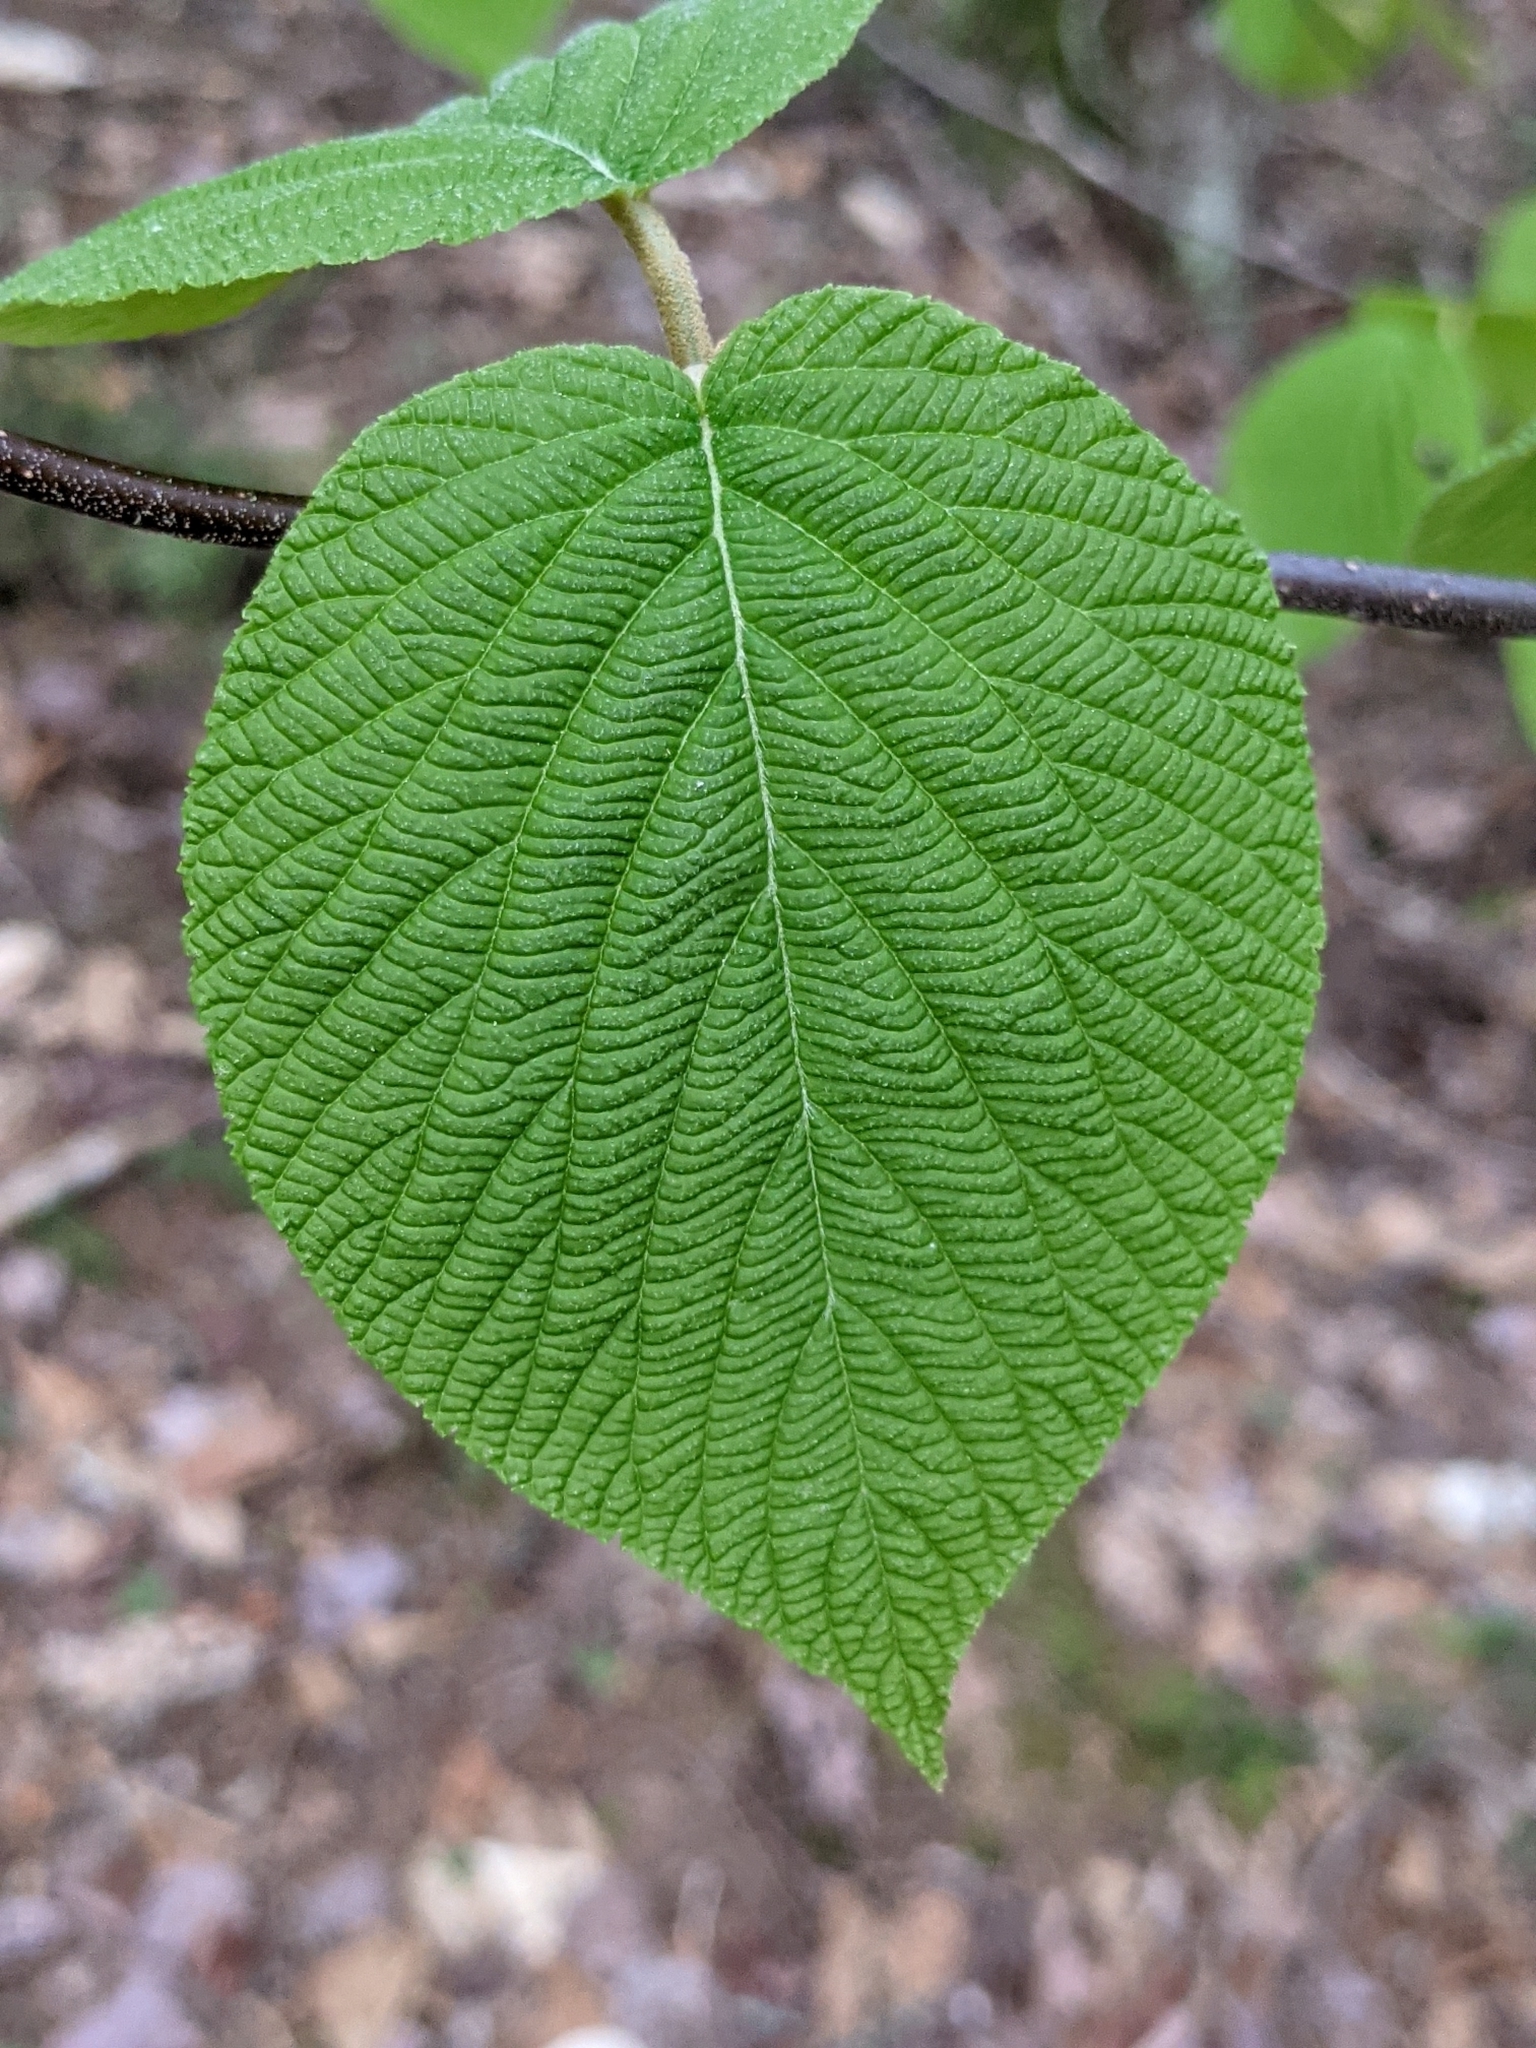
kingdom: Plantae
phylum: Tracheophyta
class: Magnoliopsida
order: Dipsacales
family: Viburnaceae
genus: Viburnum
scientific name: Viburnum lantanoides
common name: Hobblebush
